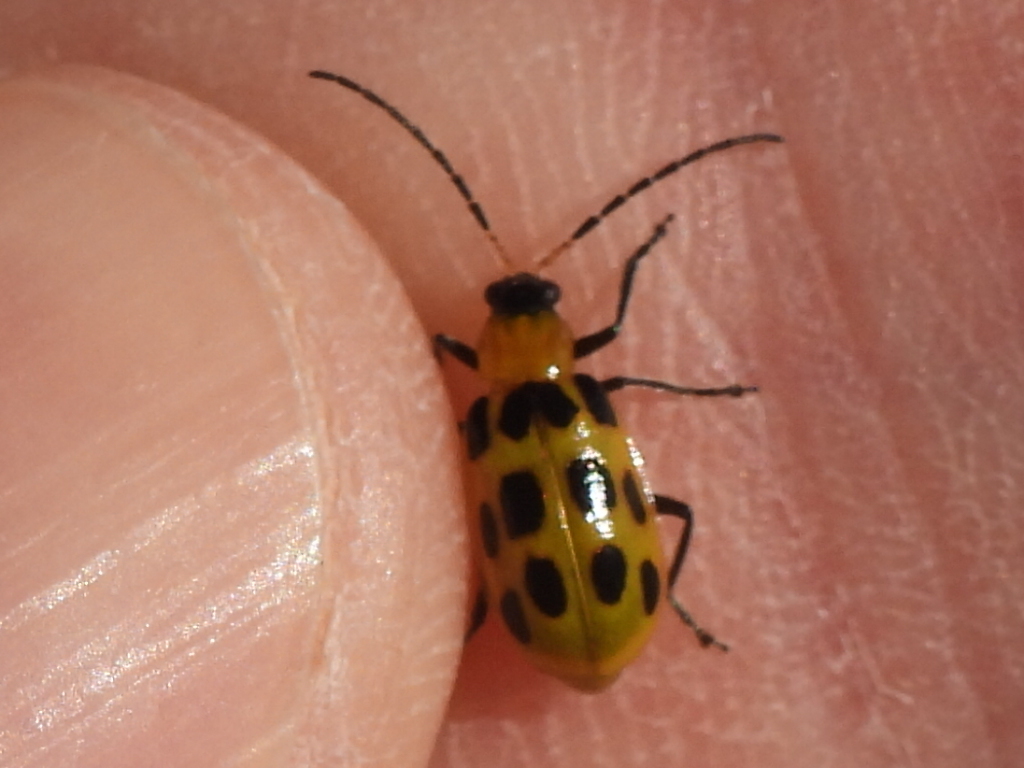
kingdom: Animalia
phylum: Arthropoda
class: Insecta
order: Coleoptera
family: Chrysomelidae
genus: Diabrotica
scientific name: Diabrotica undecimpunctata
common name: Spotted cucumber beetle
